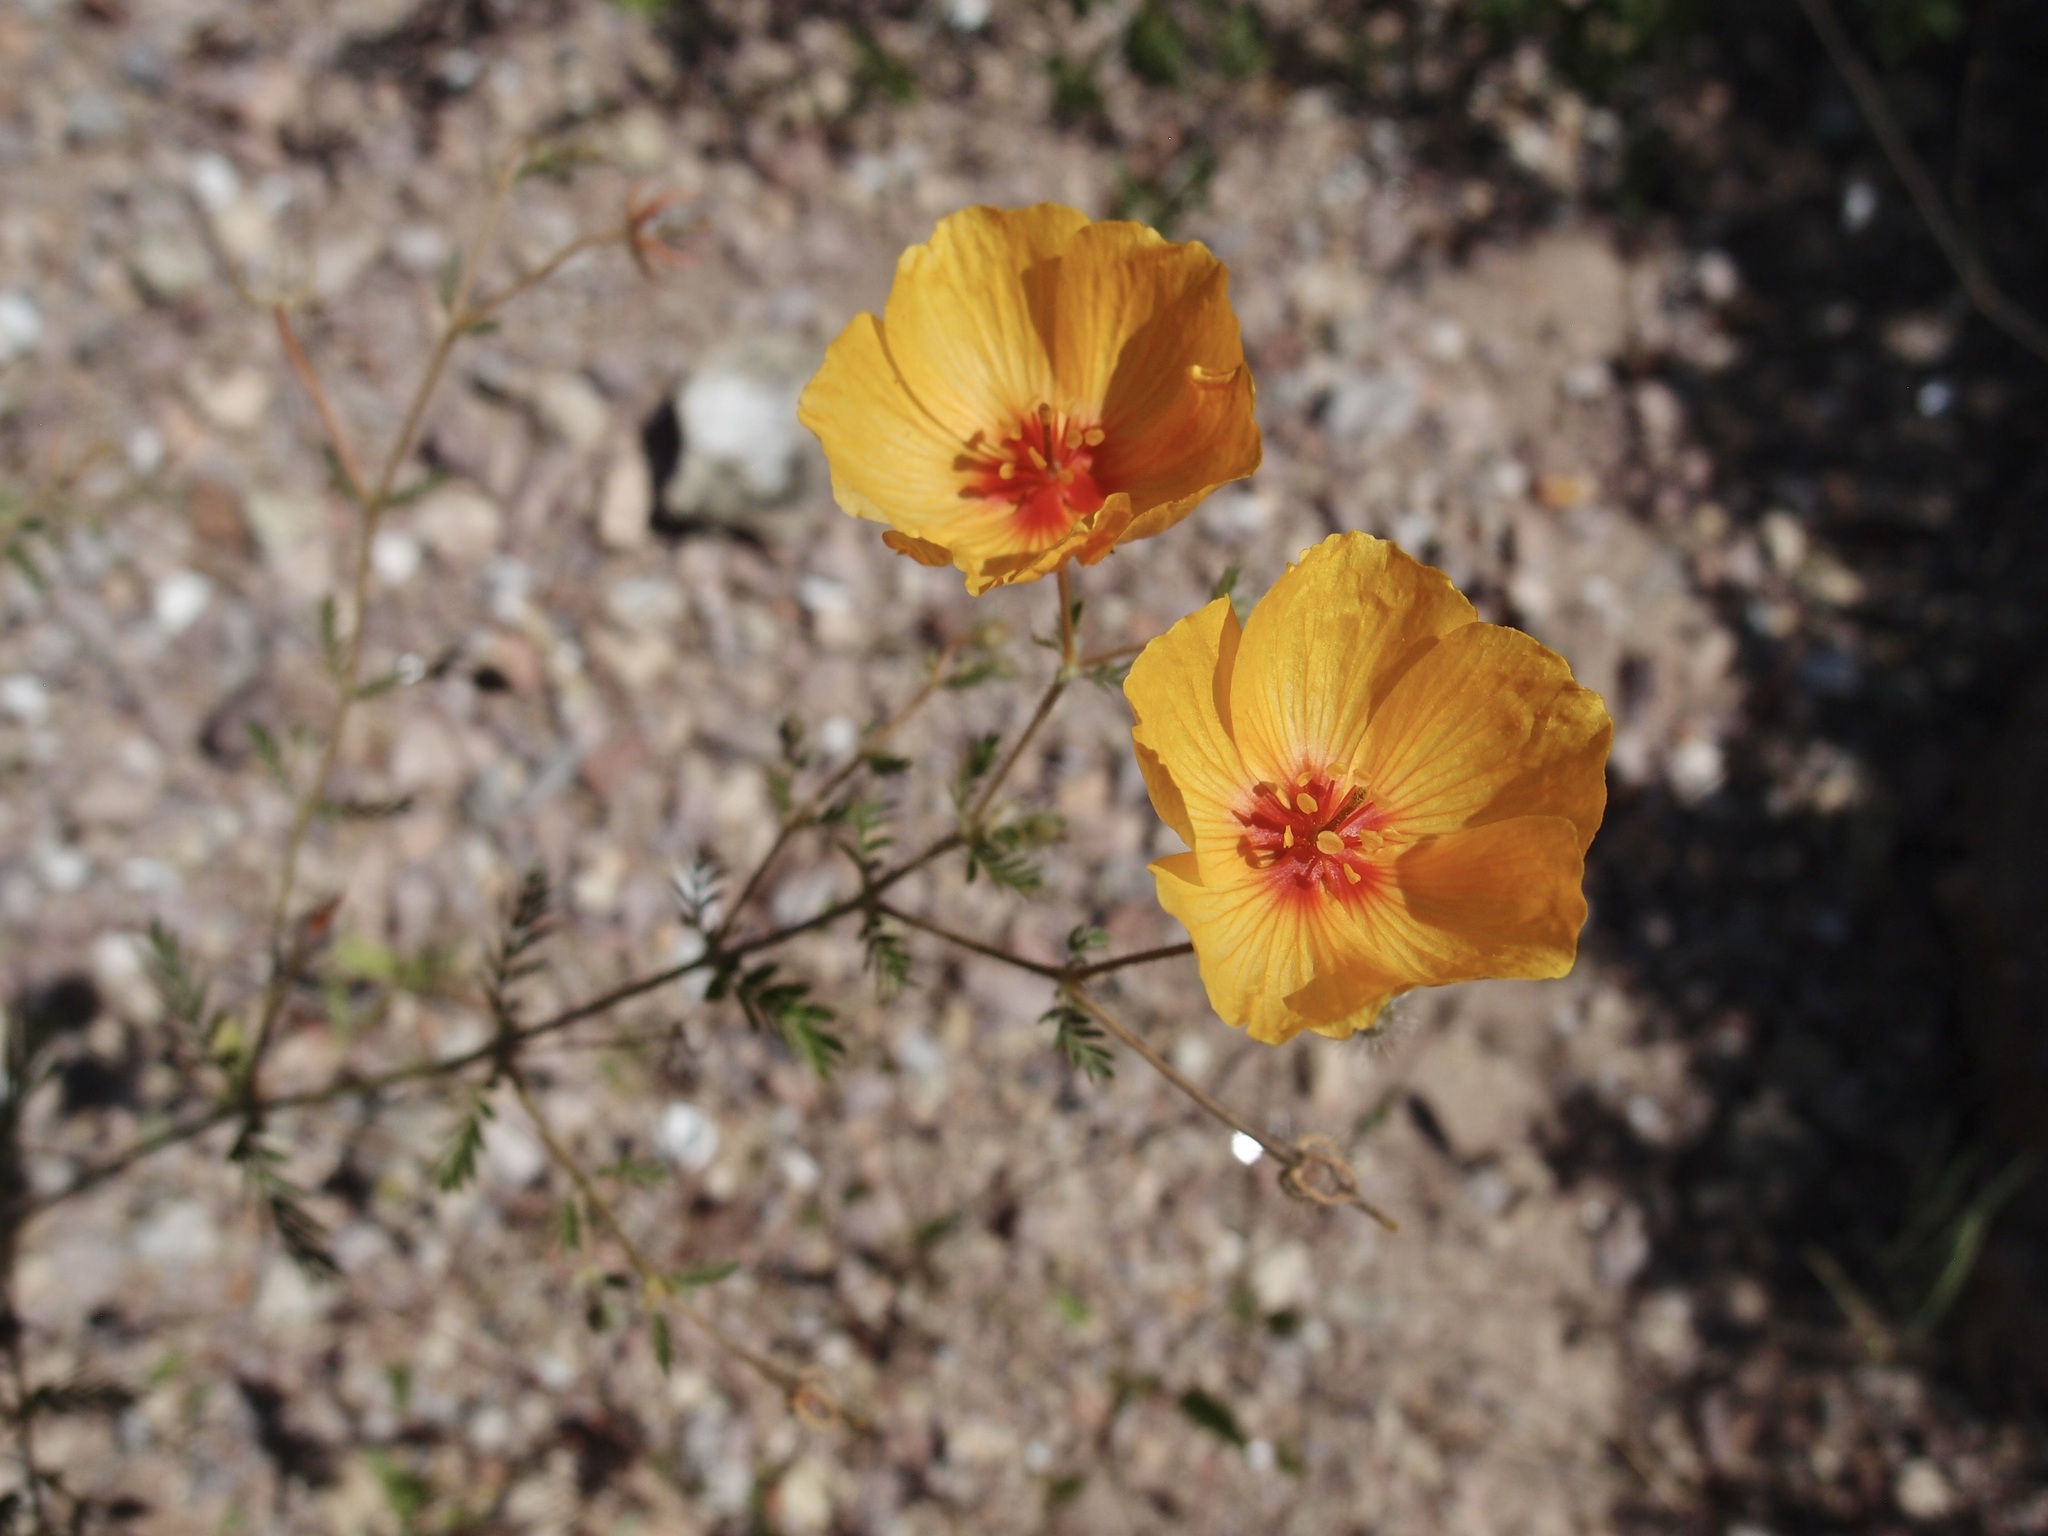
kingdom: Plantae
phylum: Tracheophyta
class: Magnoliopsida
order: Zygophyllales
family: Zygophyllaceae
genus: Kallstroemia
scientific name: Kallstroemia grandiflora
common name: Arizona-poppy
